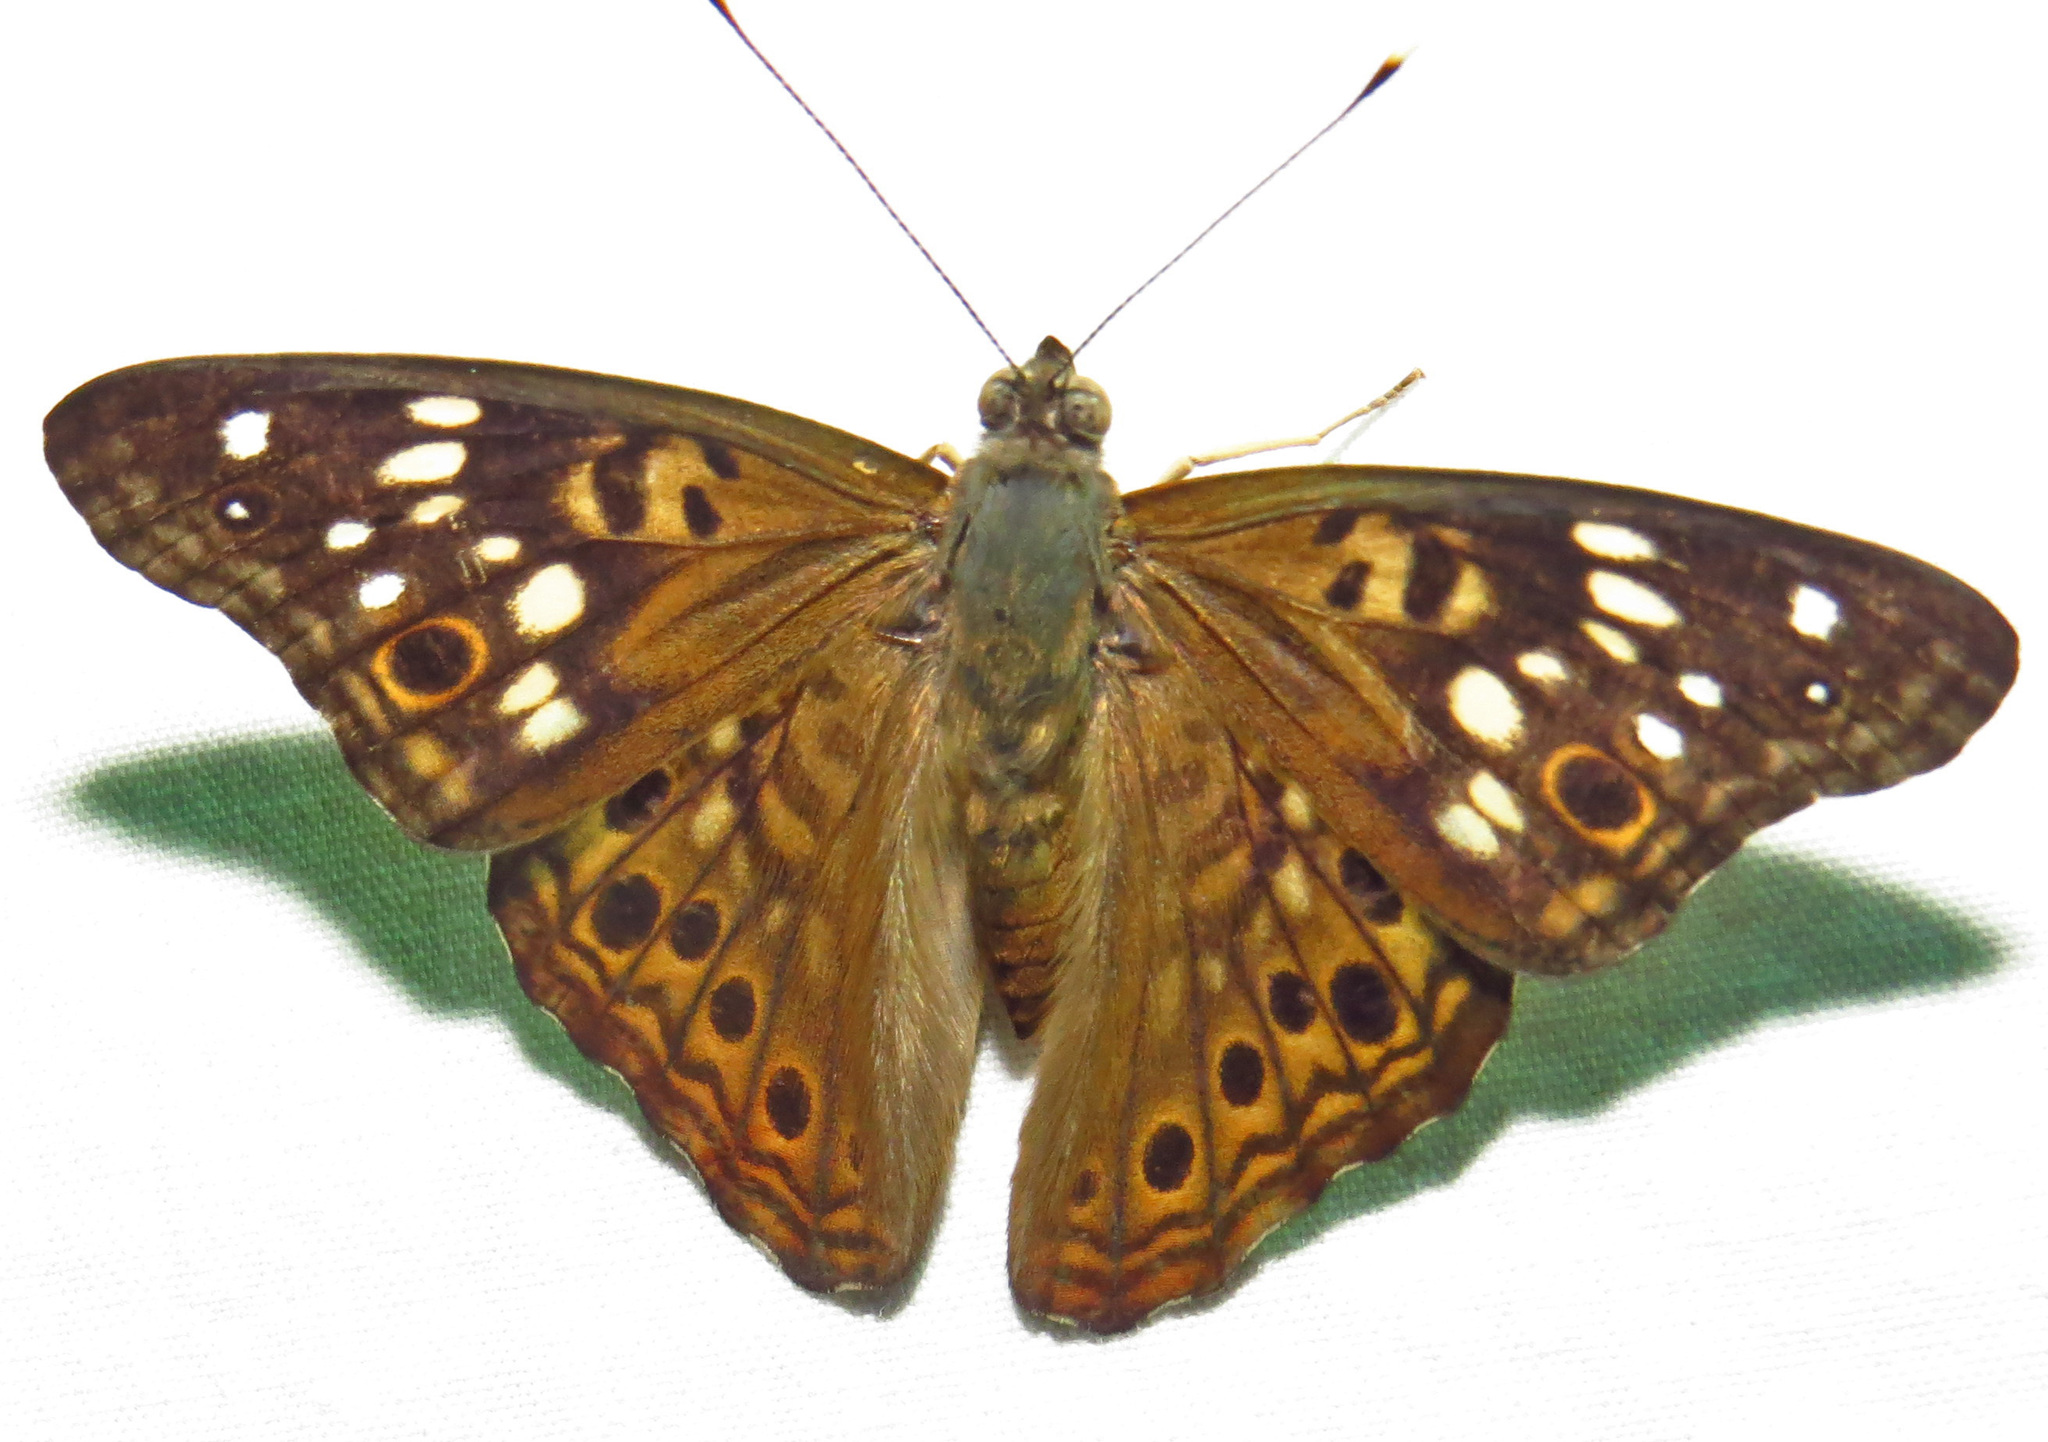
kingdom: Animalia
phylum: Arthropoda
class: Insecta
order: Lepidoptera
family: Nymphalidae
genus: Asterocampa
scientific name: Asterocampa celtis
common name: Hackberry emperor
